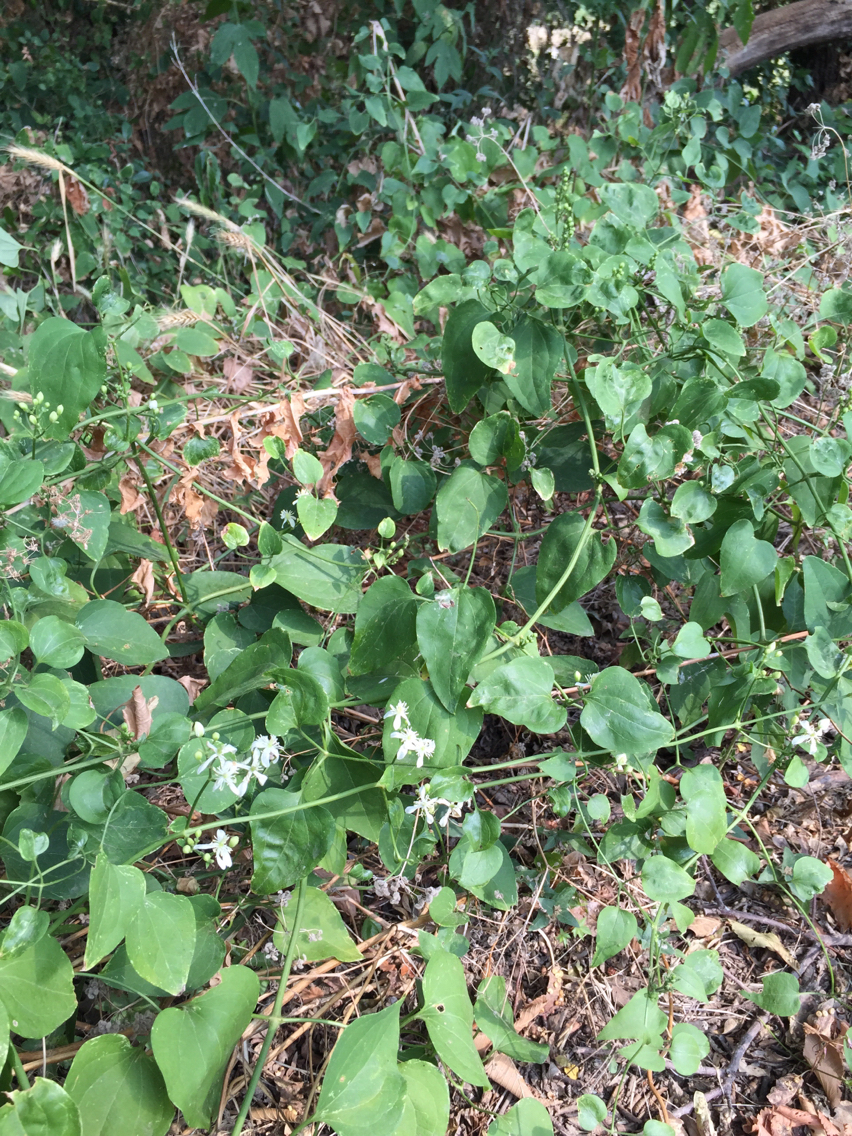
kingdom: Plantae
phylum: Tracheophyta
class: Magnoliopsida
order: Ranunculales
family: Ranunculaceae
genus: Clematis
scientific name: Clematis terniflora
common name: Sweet autumn clematis
